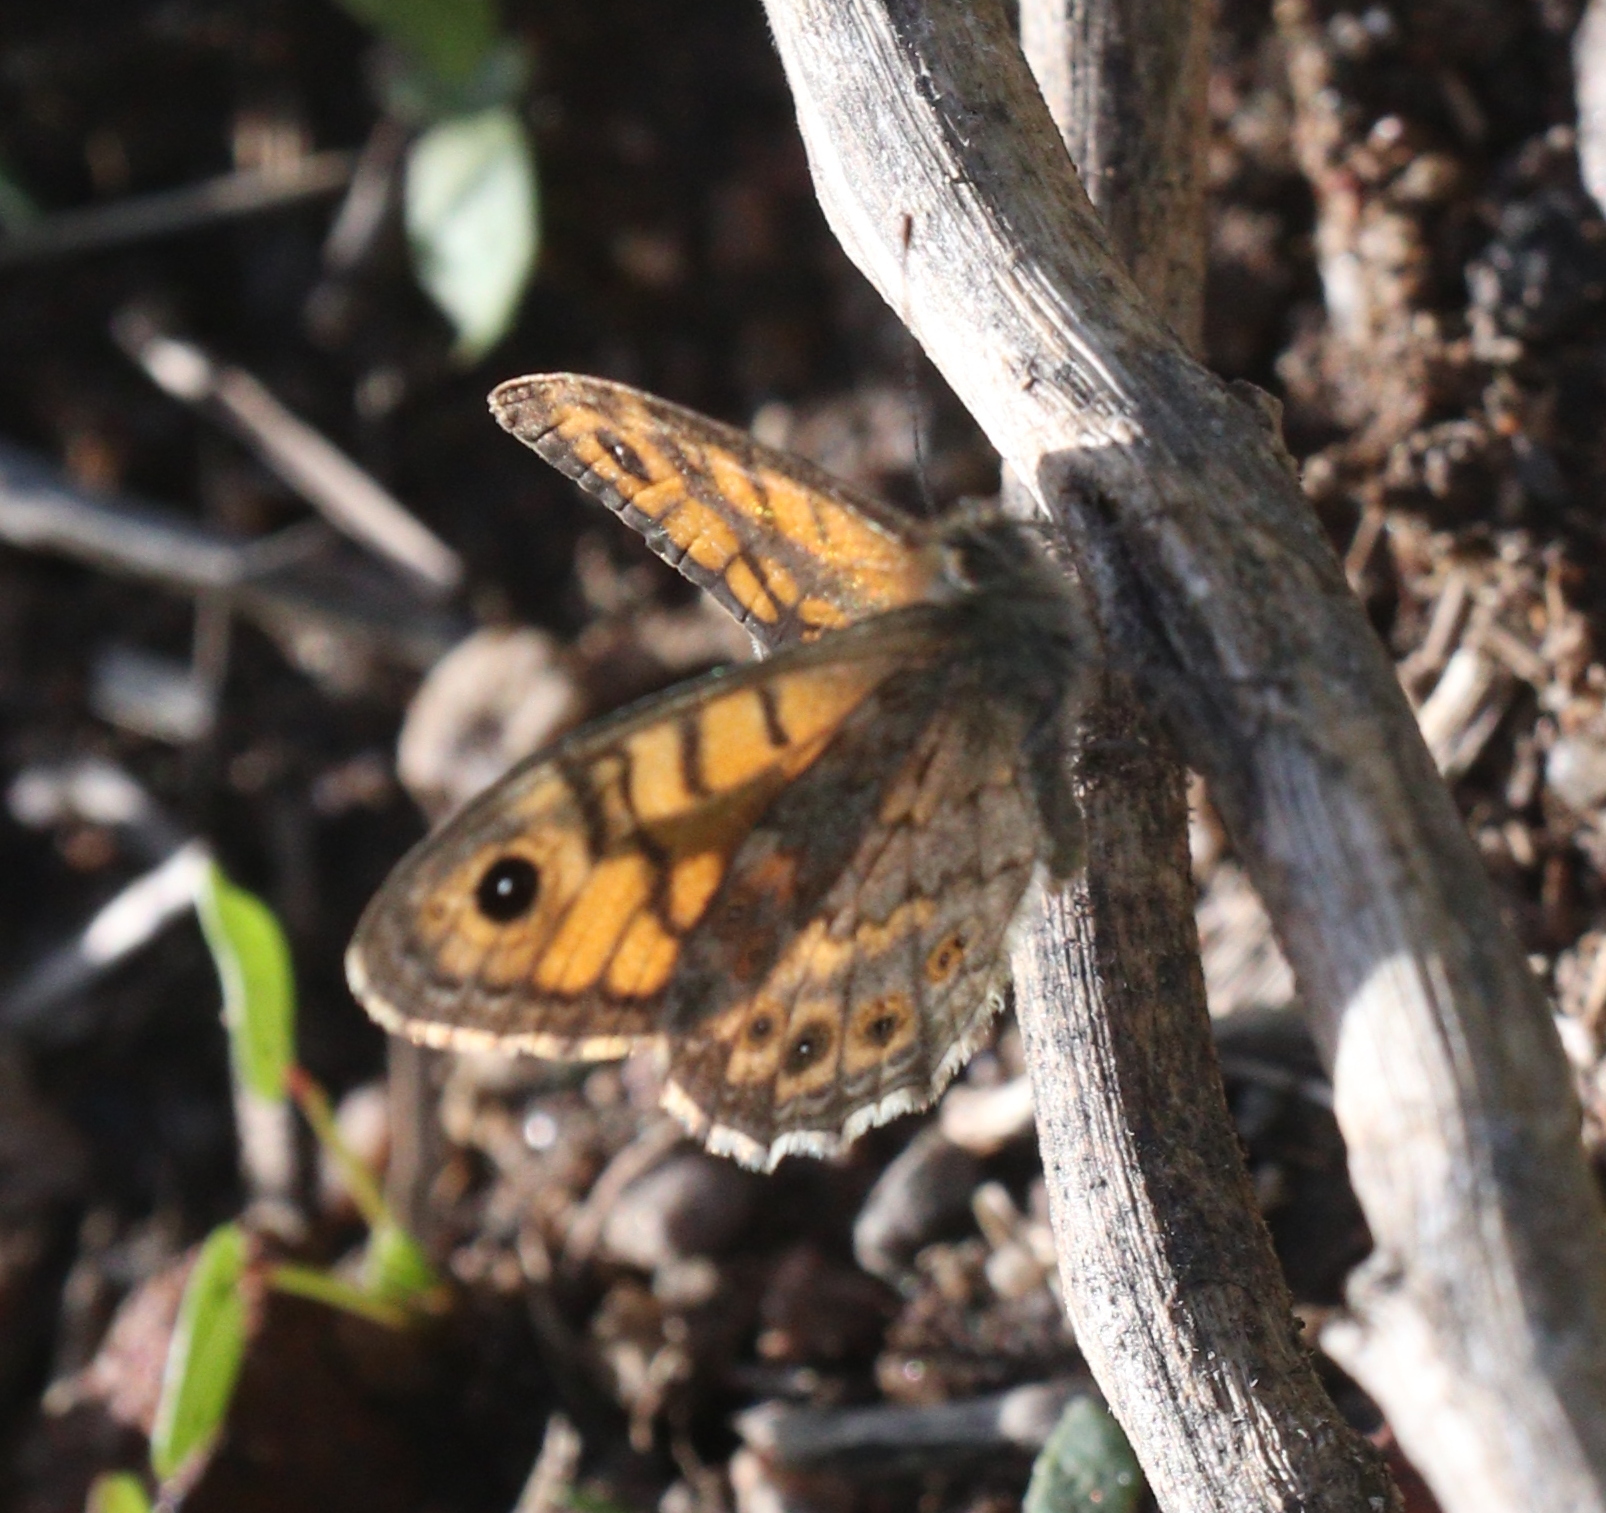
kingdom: Animalia
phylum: Arthropoda
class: Insecta
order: Lepidoptera
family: Nymphalidae
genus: Pararge
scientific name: Pararge Lasiommata megera
